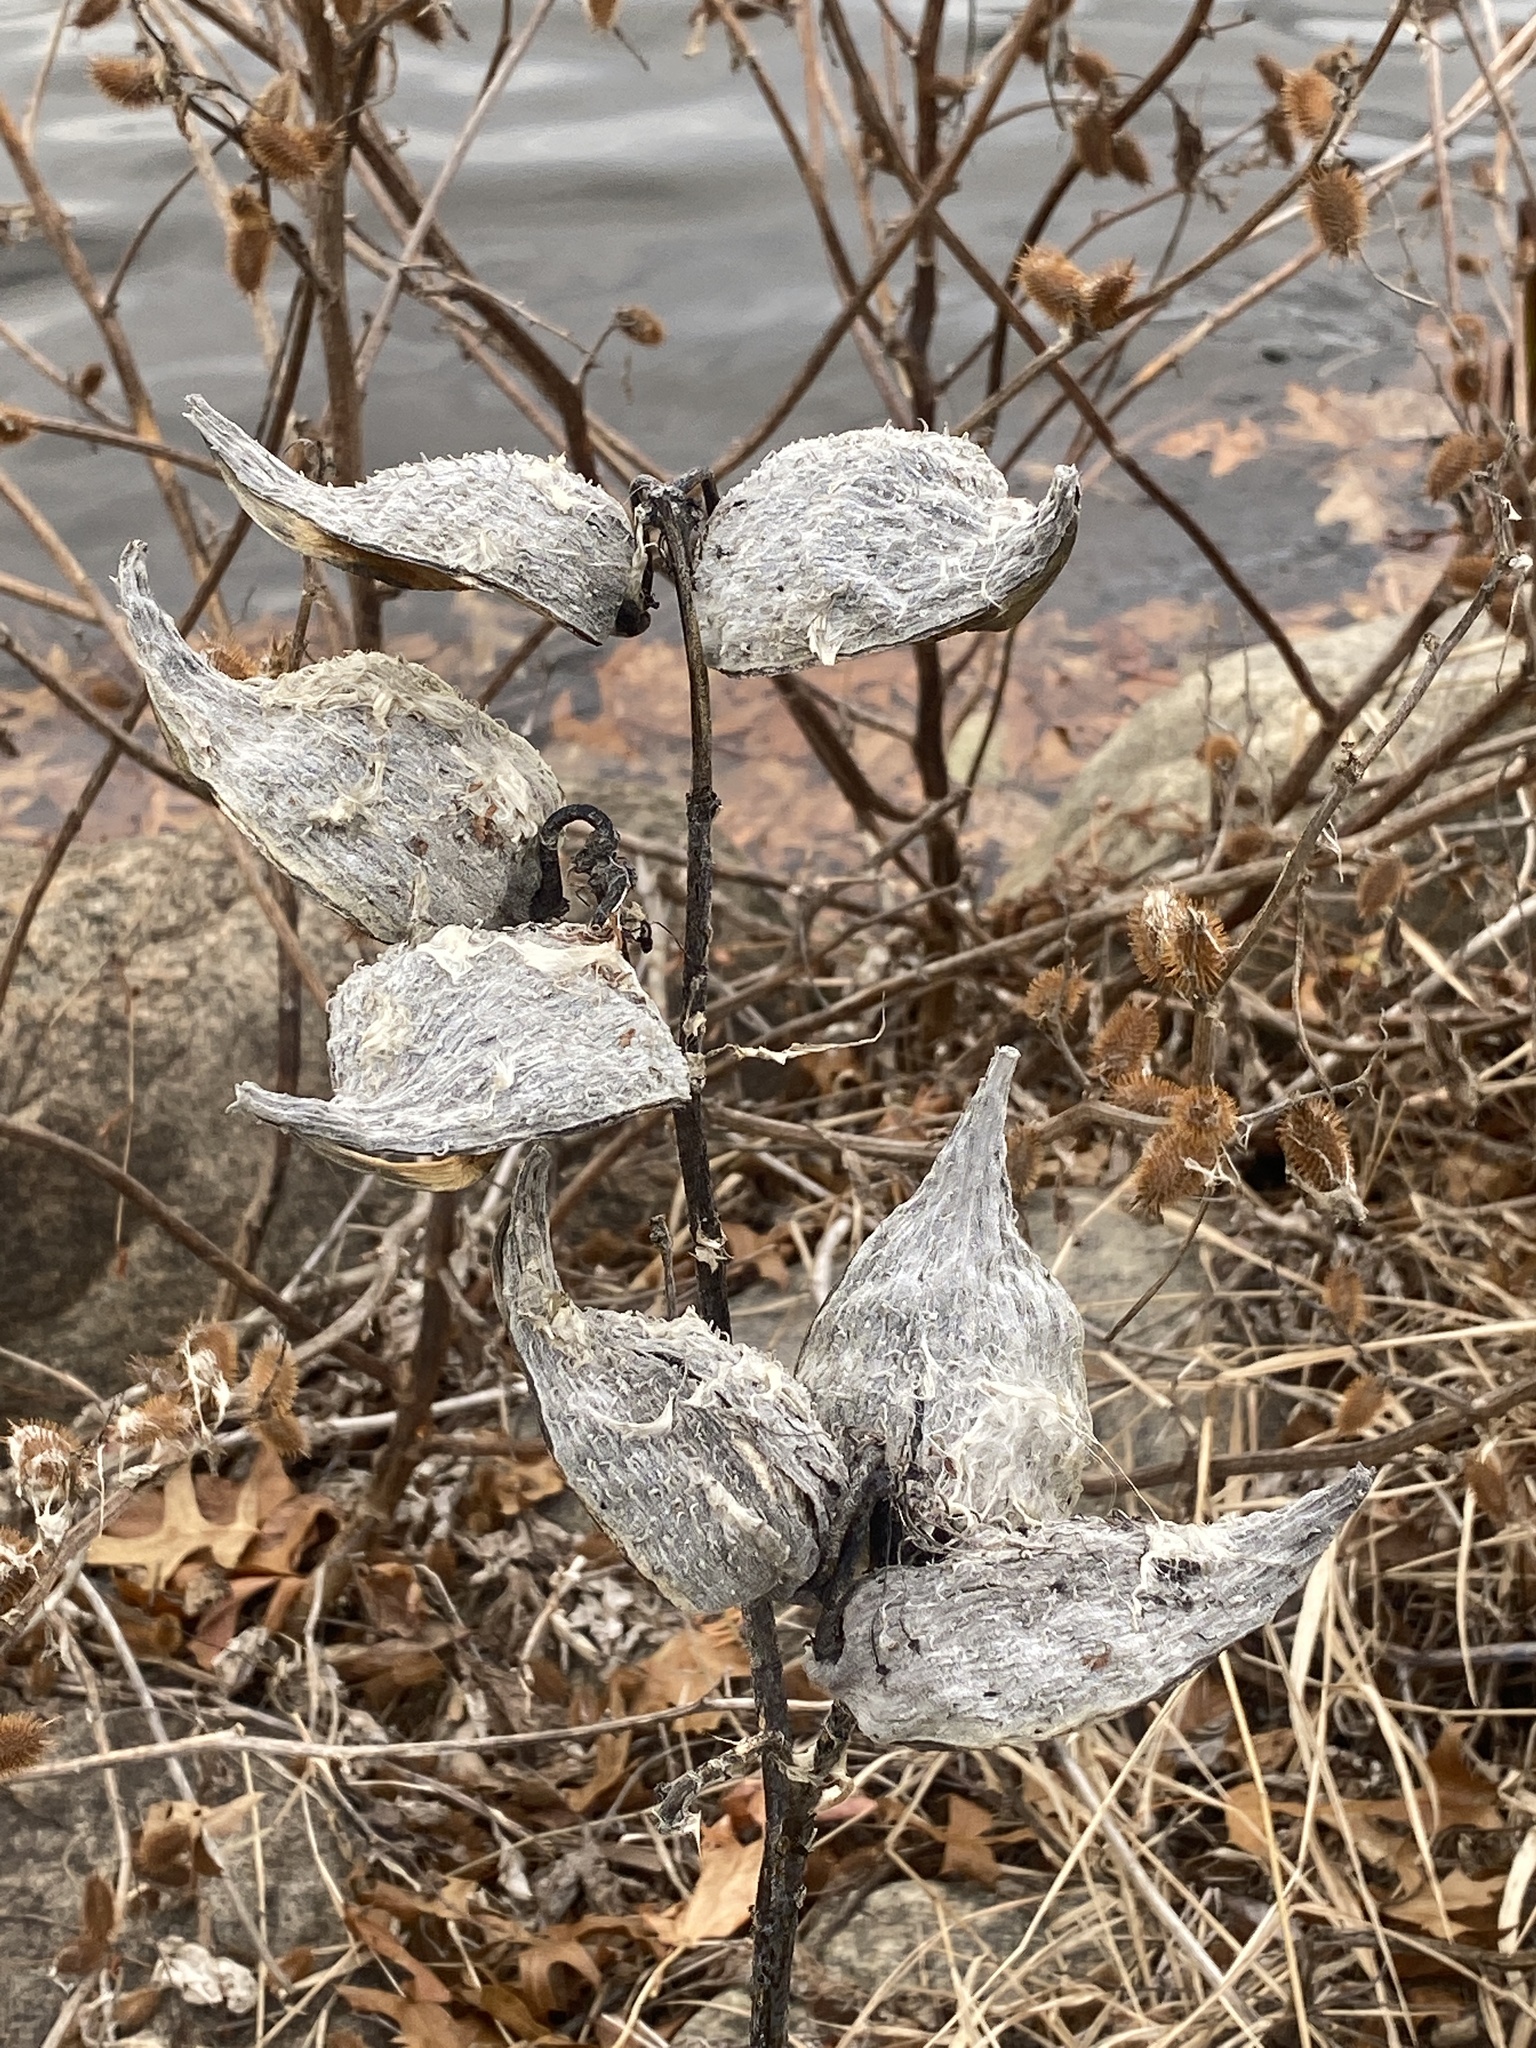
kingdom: Plantae
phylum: Tracheophyta
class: Magnoliopsida
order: Gentianales
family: Apocynaceae
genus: Asclepias
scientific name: Asclepias syriaca
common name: Common milkweed
